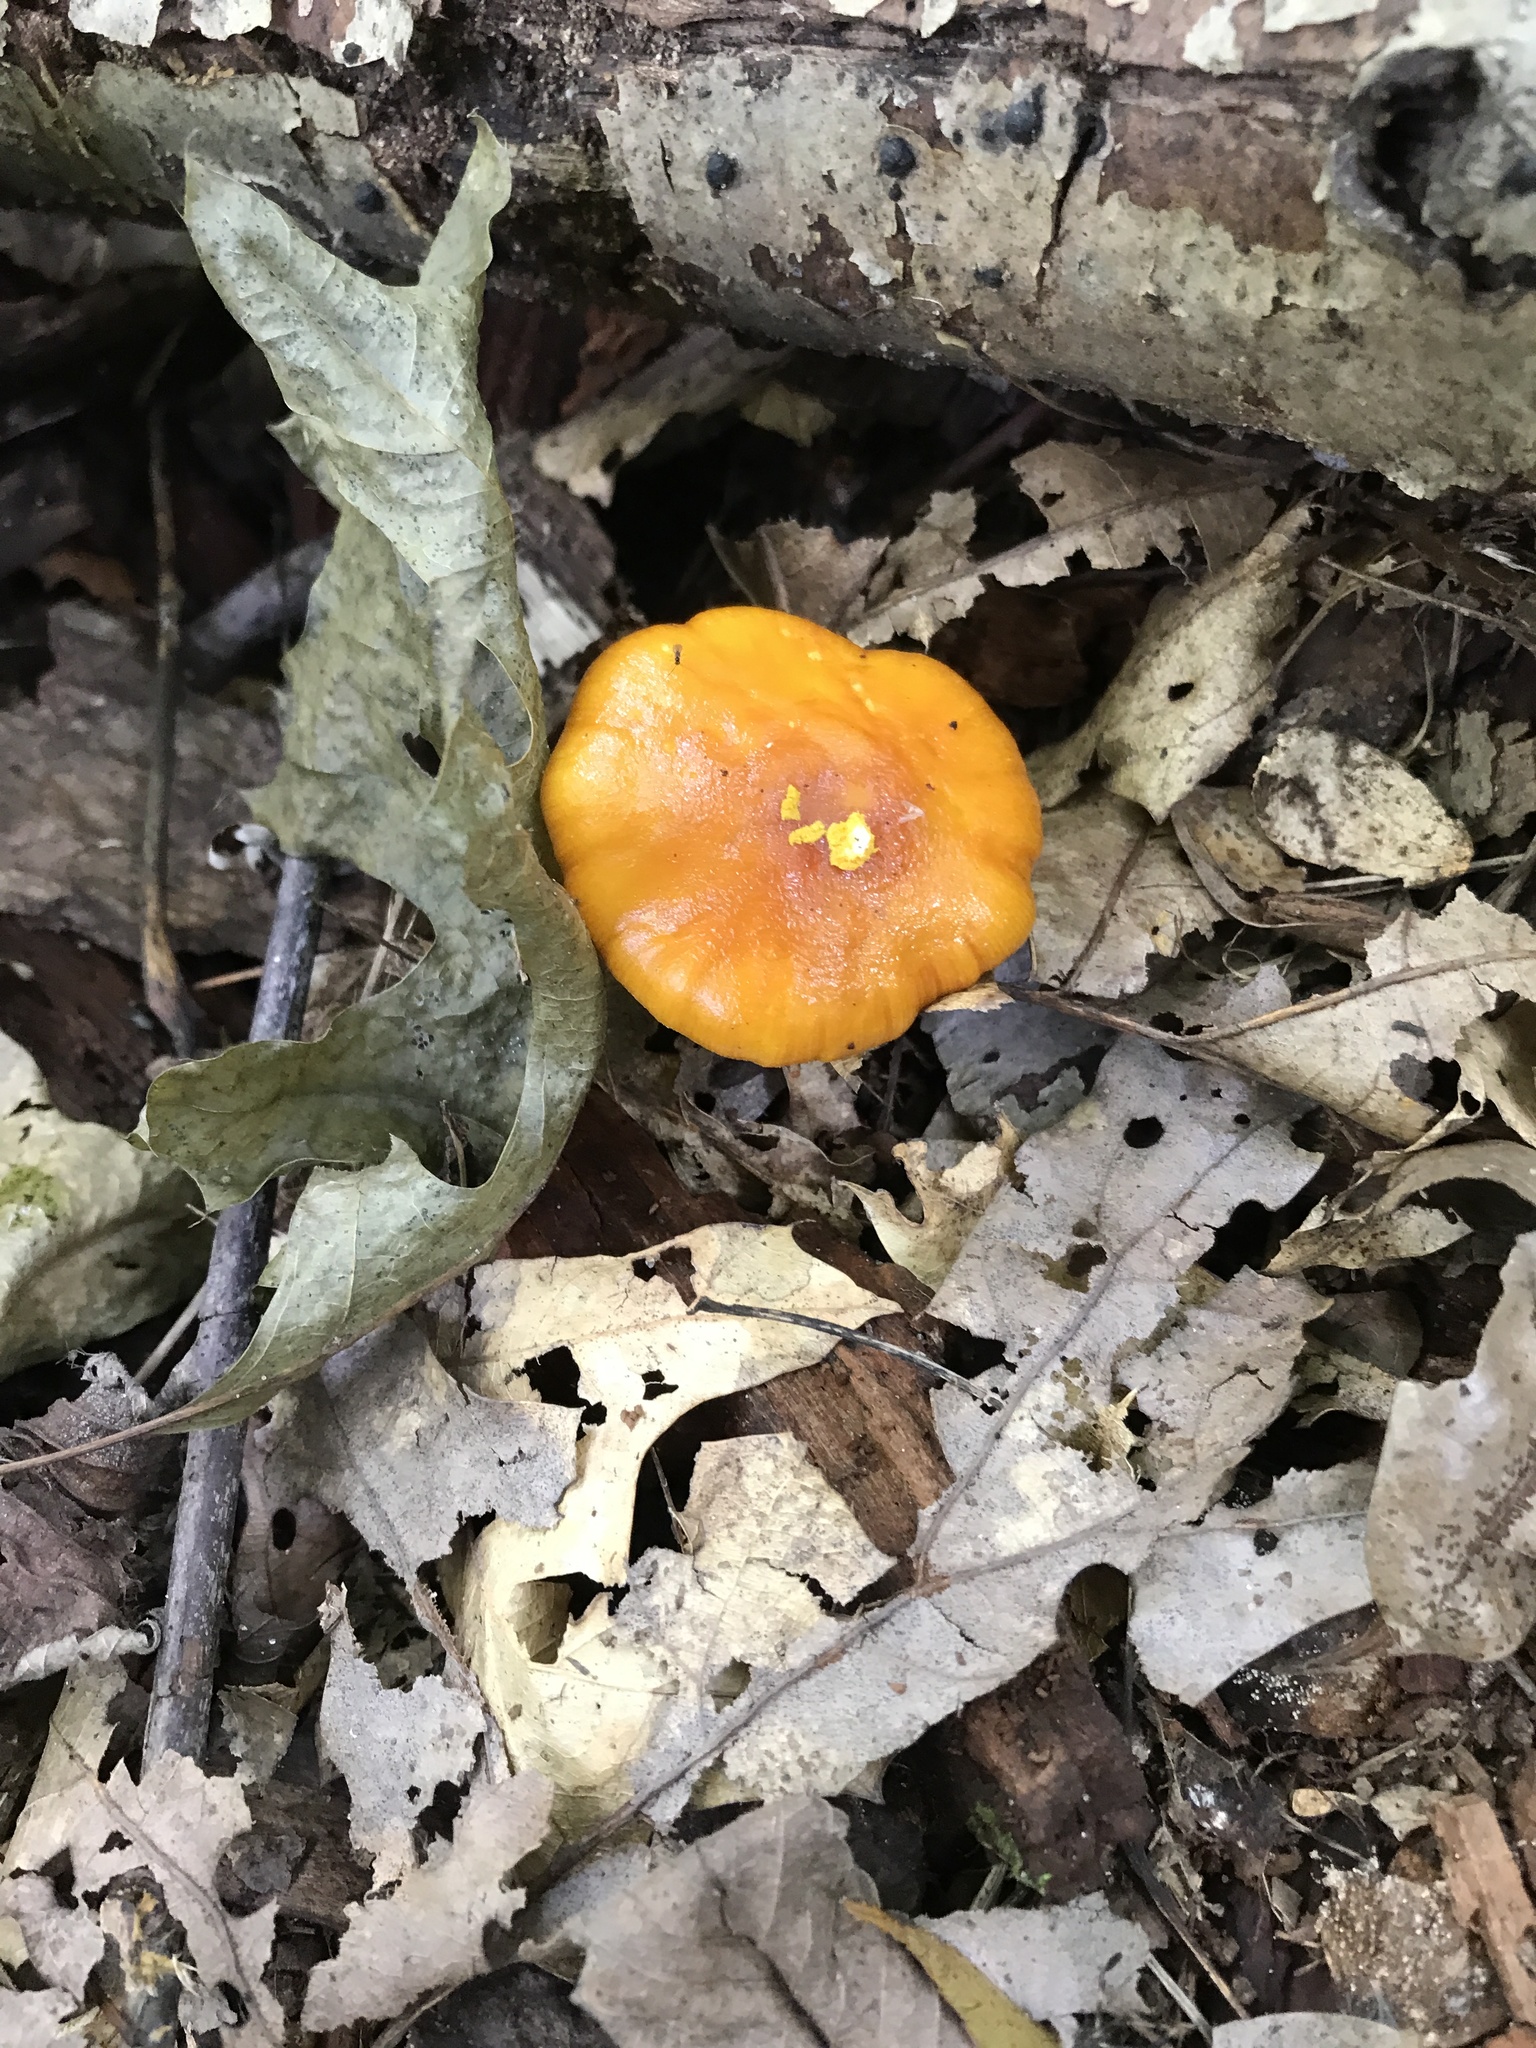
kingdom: Fungi
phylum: Basidiomycota
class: Agaricomycetes
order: Agaricales
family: Amanitaceae
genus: Amanita
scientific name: Amanita flavoconia
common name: Yellow patches
